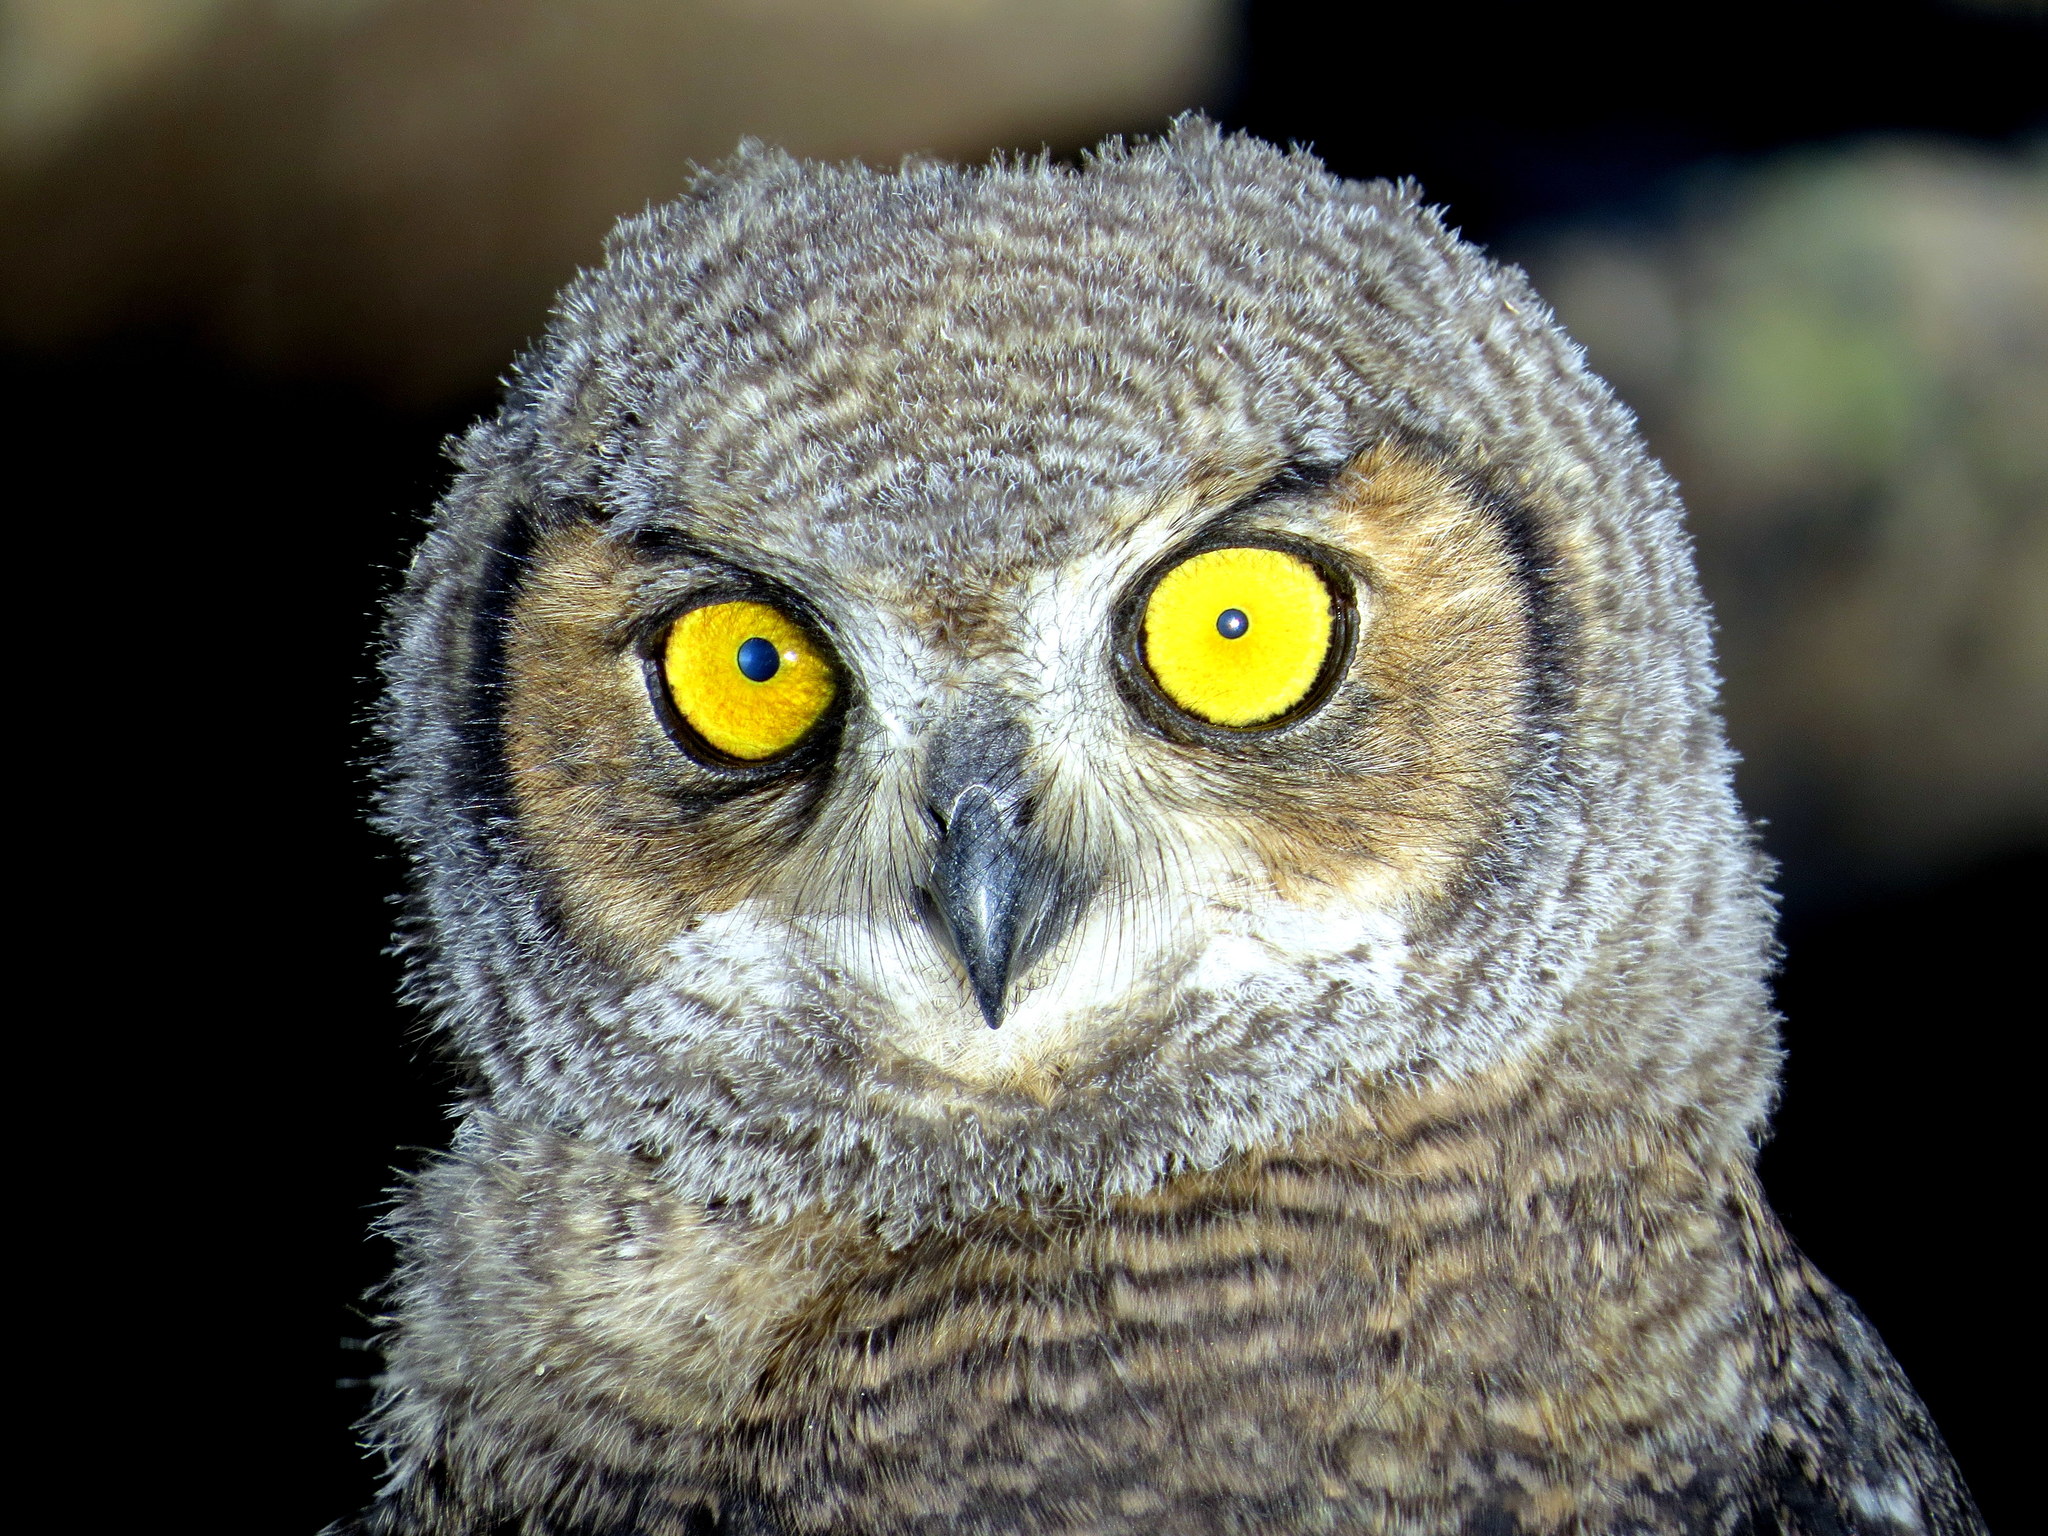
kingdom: Animalia
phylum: Chordata
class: Aves
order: Strigiformes
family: Strigidae
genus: Bubo
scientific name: Bubo magellanicus
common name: Lesser horned owl
